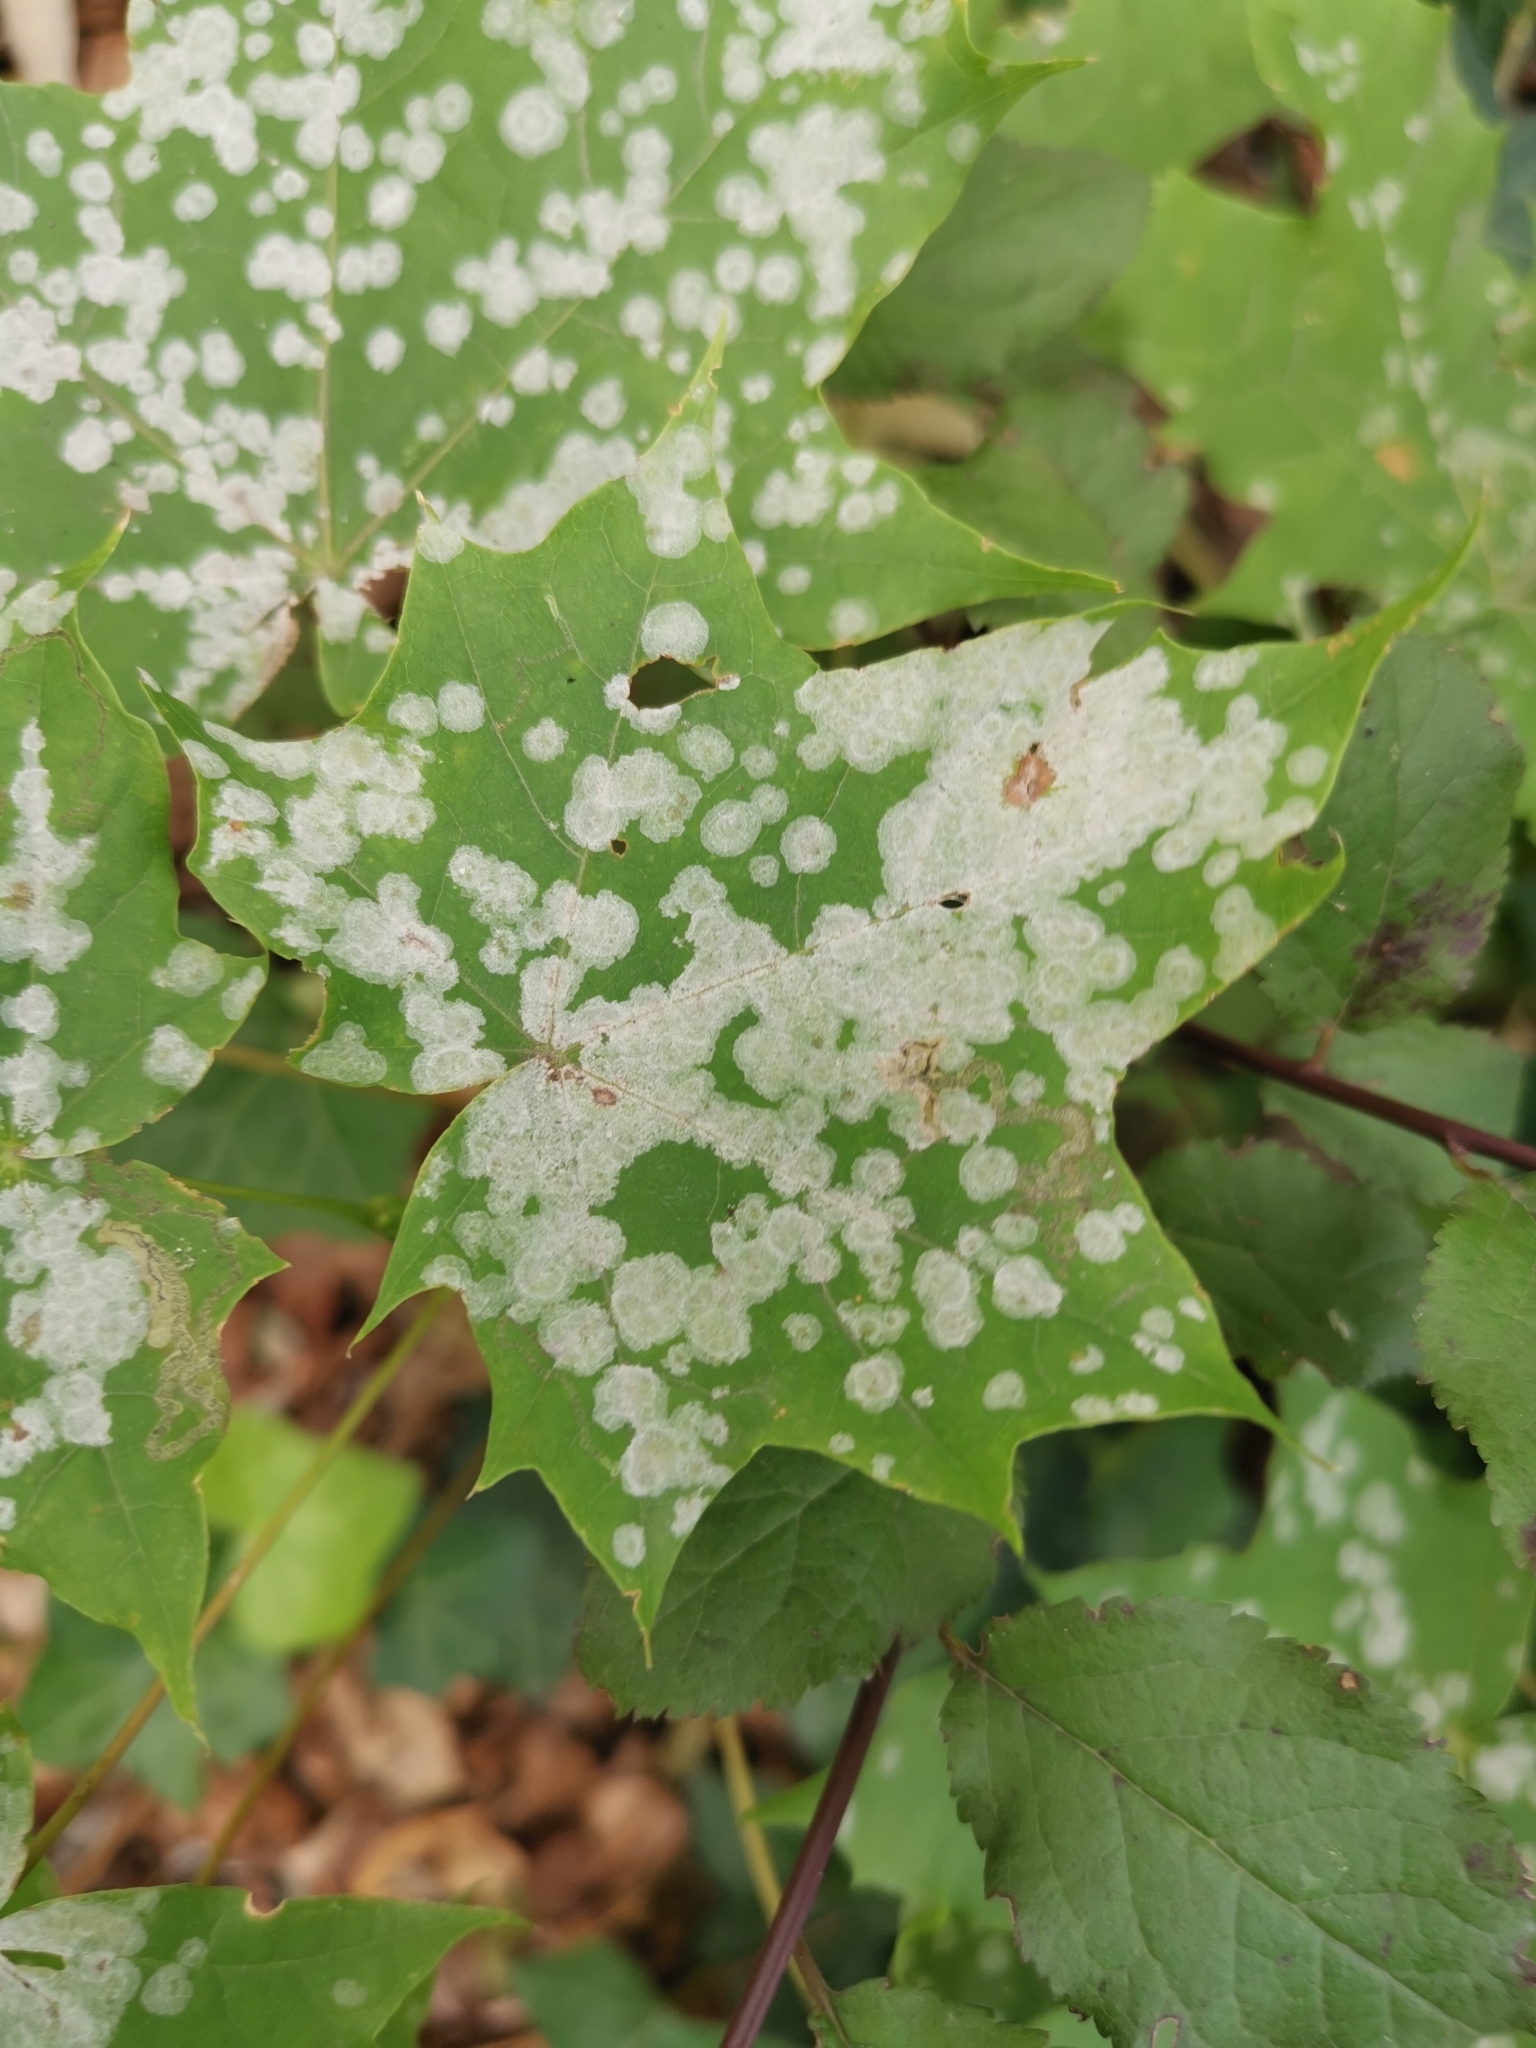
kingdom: Fungi
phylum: Ascomycota
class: Leotiomycetes
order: Helotiales
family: Erysiphaceae
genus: Sawadaea
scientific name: Sawadaea tulasnei
